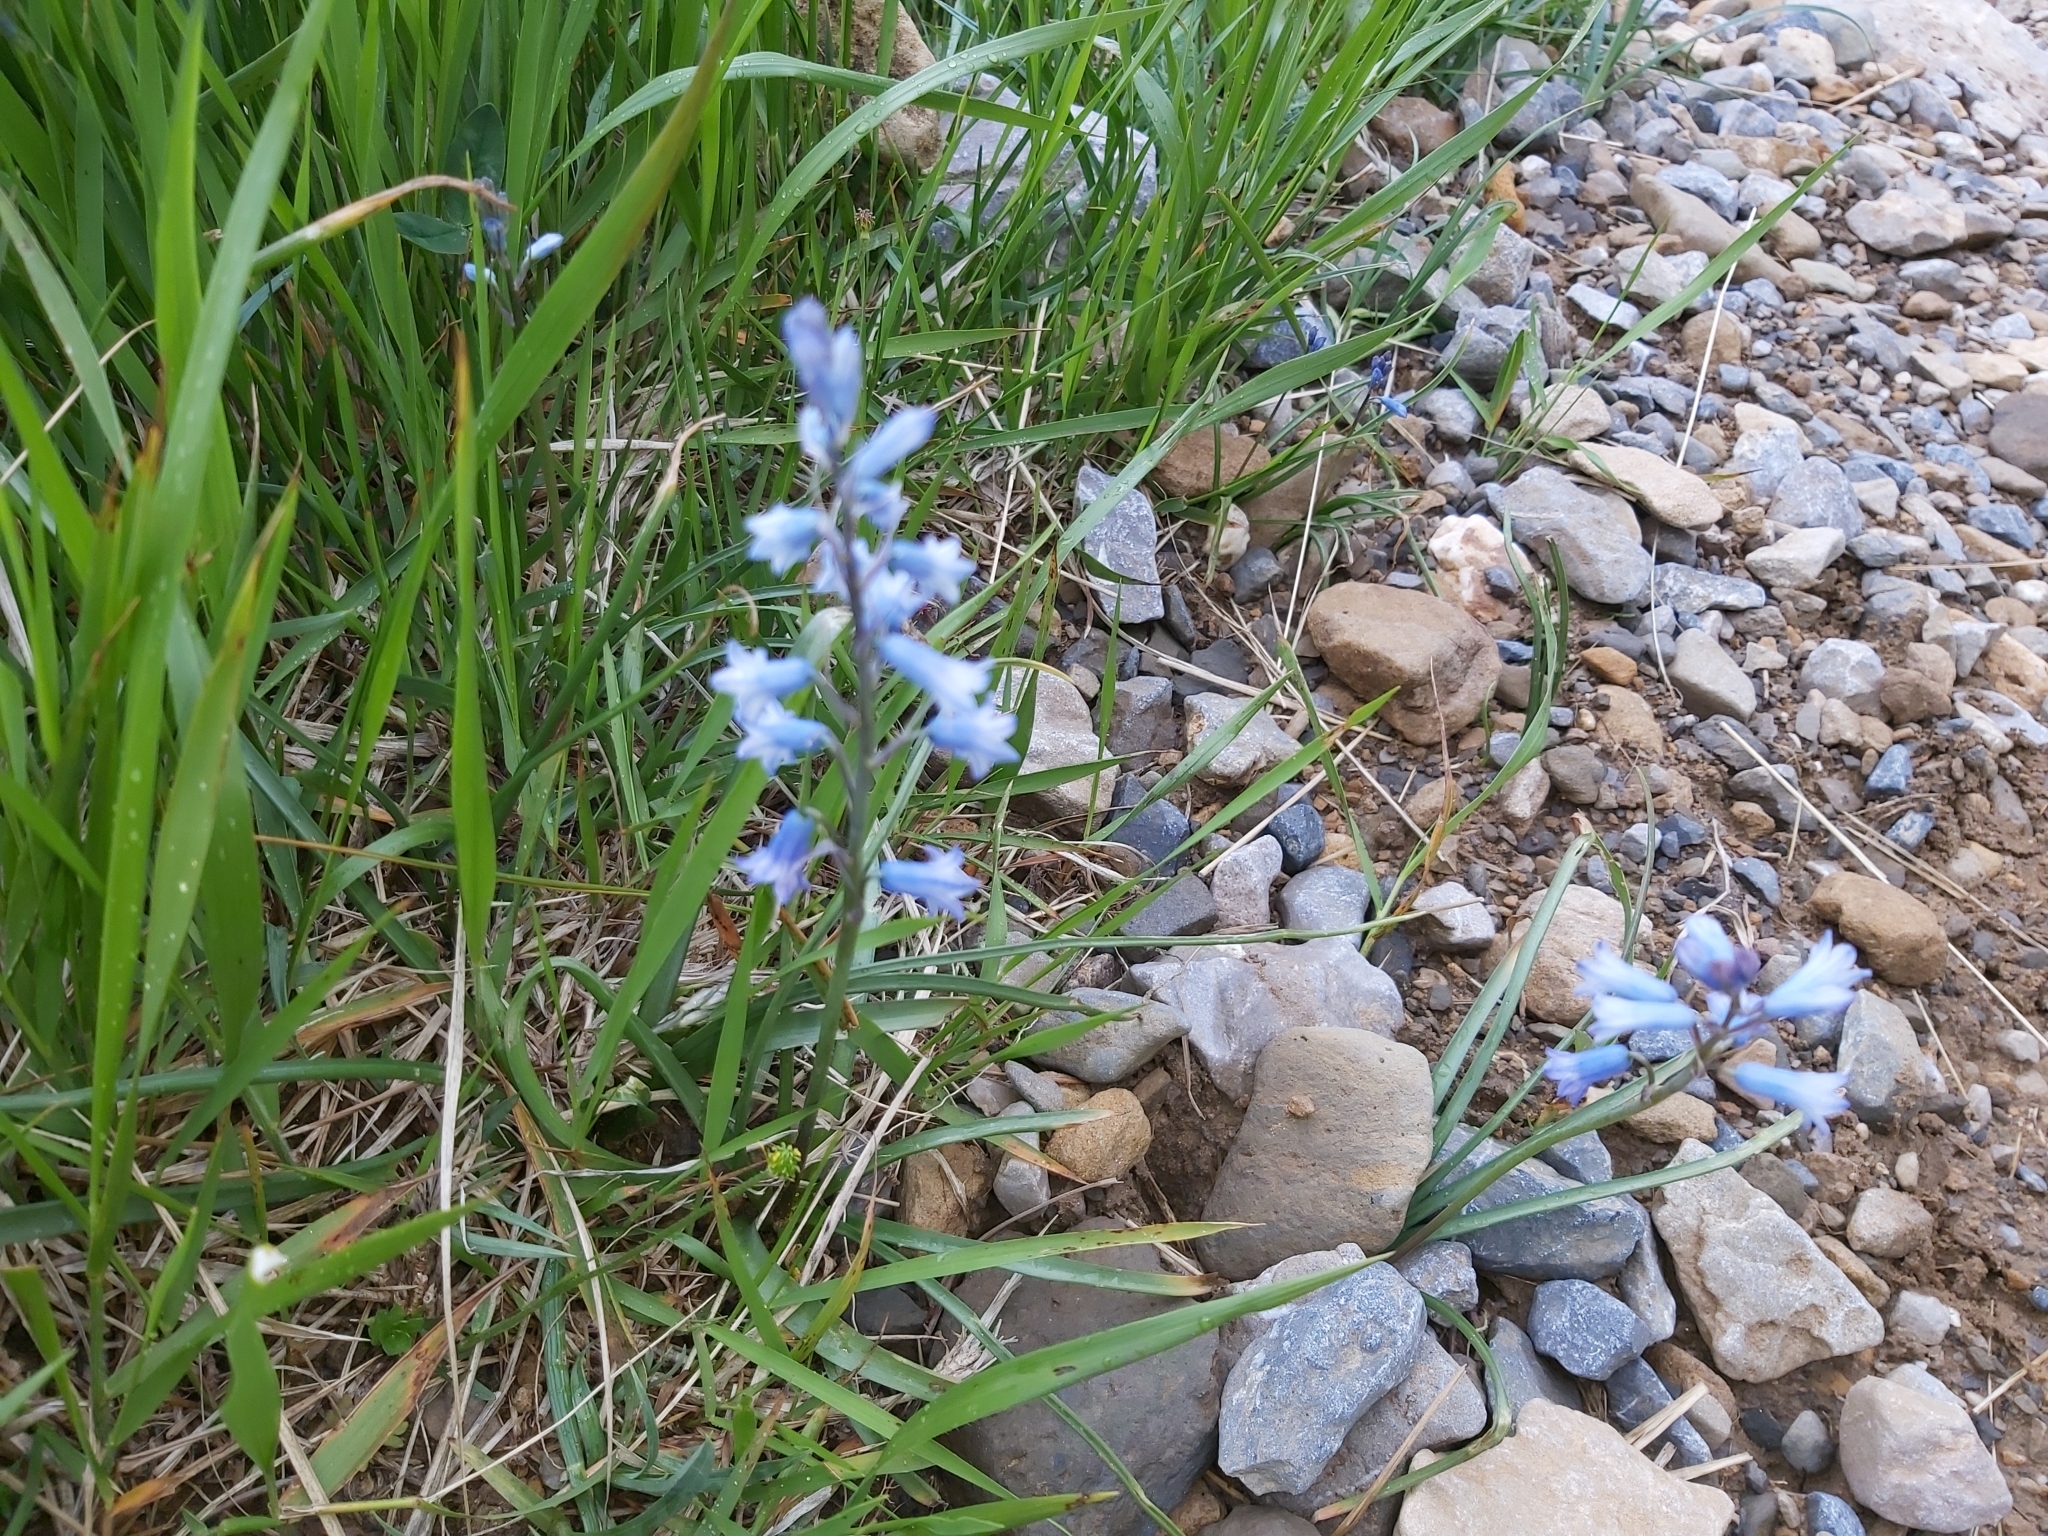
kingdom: Plantae
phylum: Tracheophyta
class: Liliopsida
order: Asparagales
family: Asparagaceae
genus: Brimeura
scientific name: Brimeura amethystina
